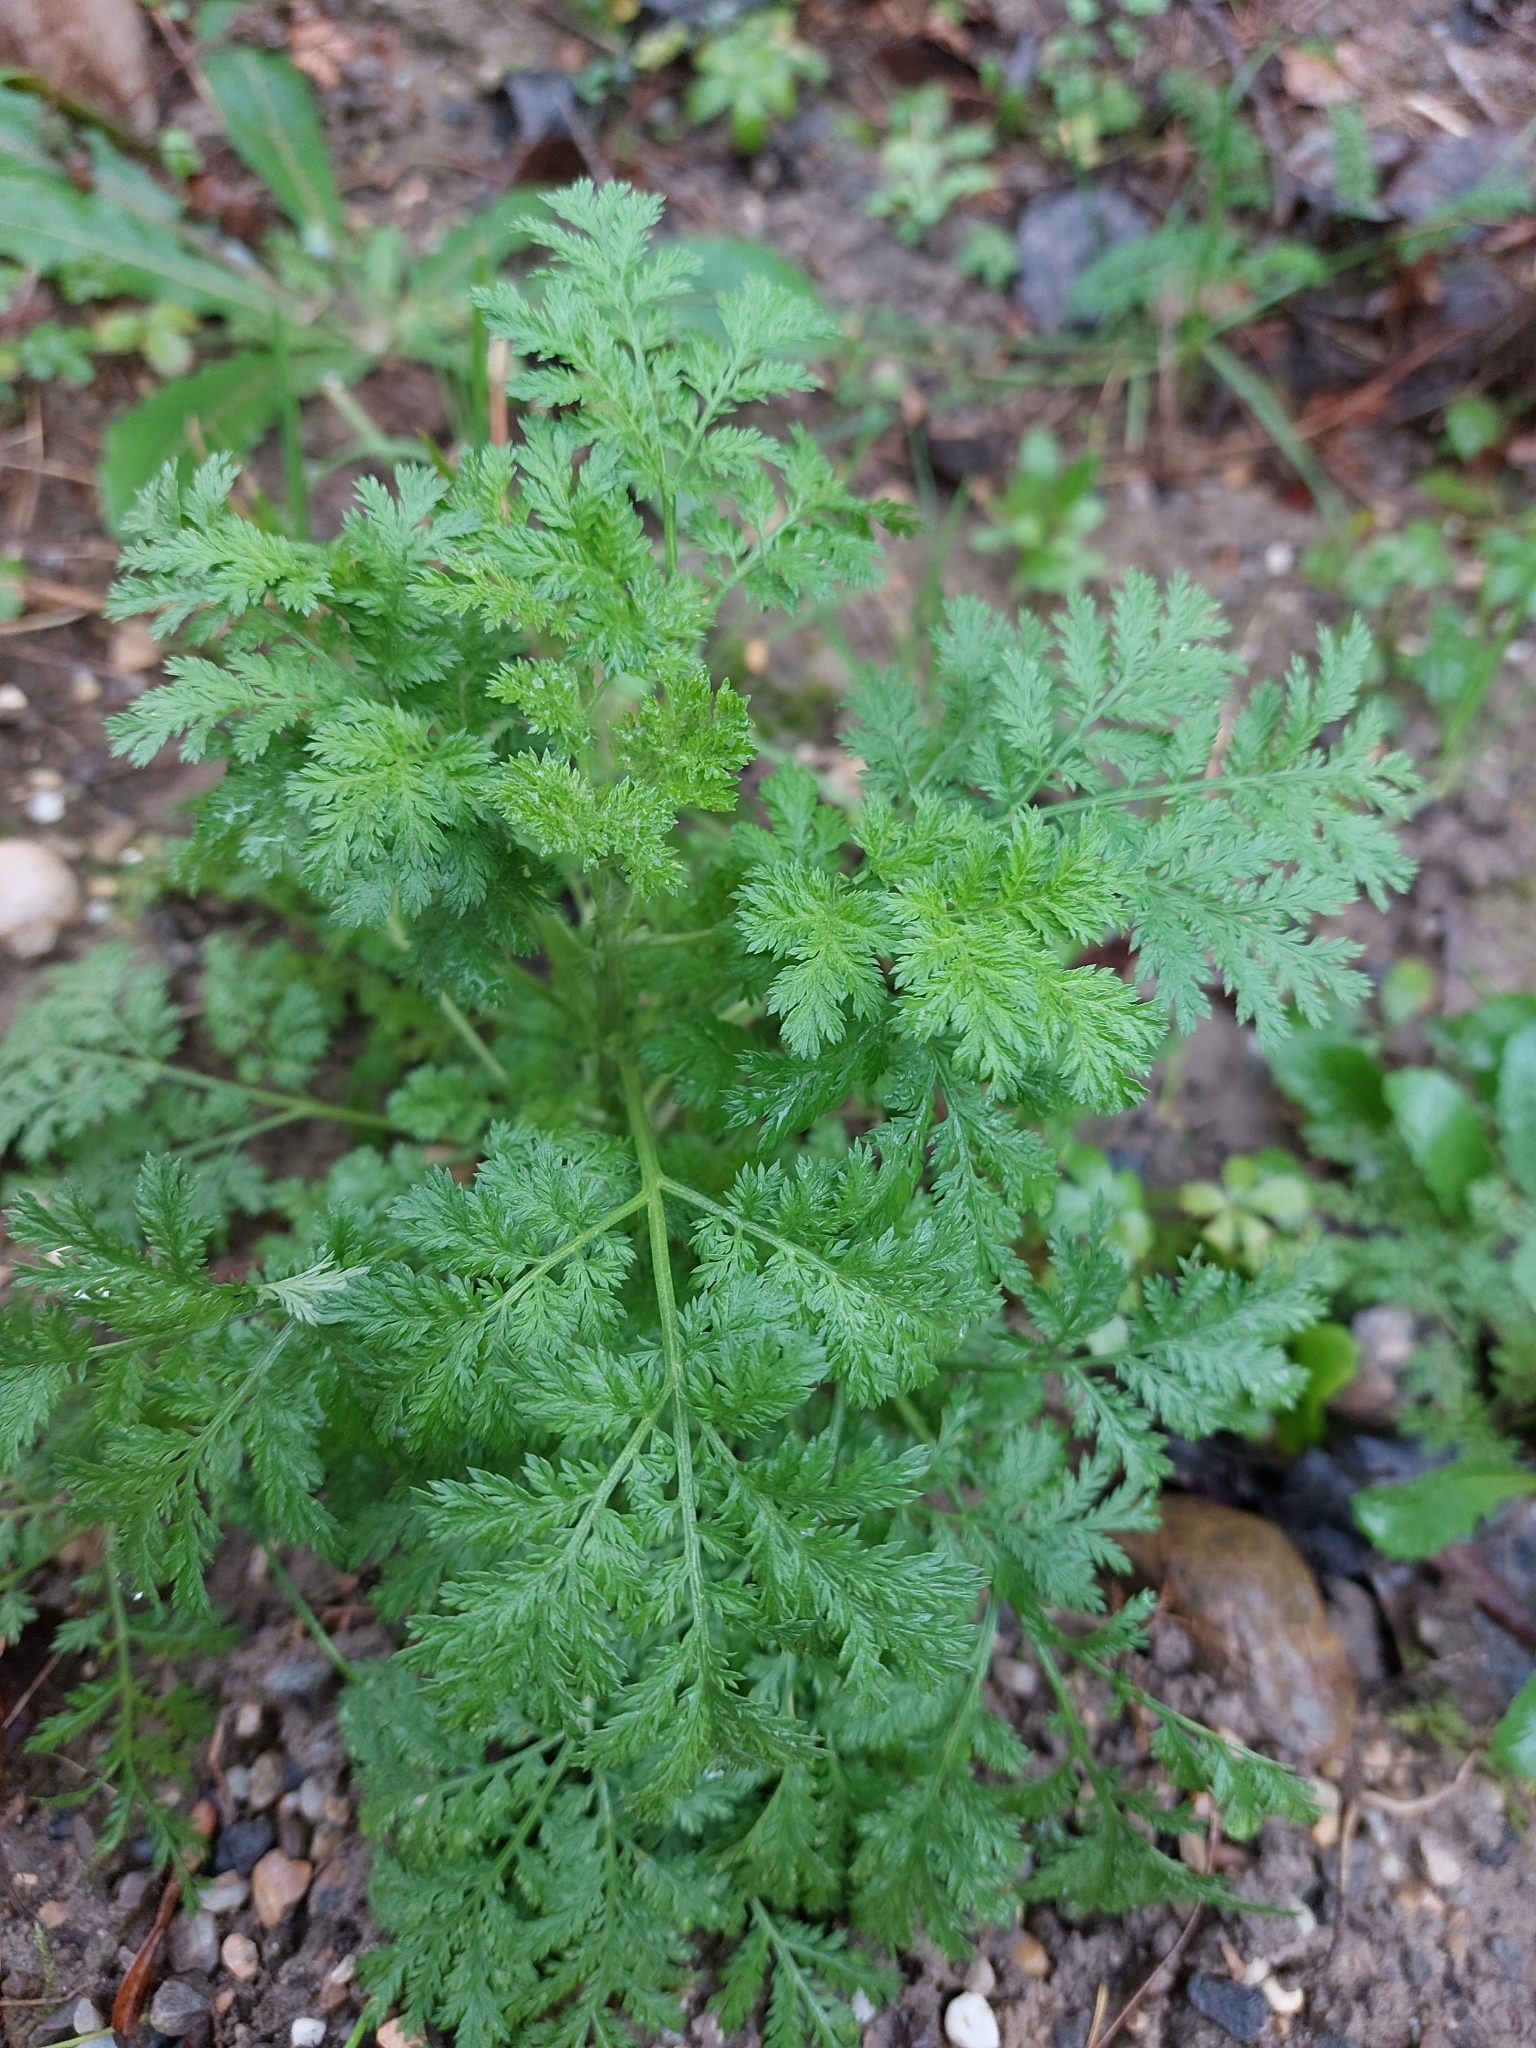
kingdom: Plantae
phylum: Tracheophyta
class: Magnoliopsida
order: Asterales
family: Asteraceae
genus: Artemisia
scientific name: Artemisia annua
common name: Sweet sagewort
